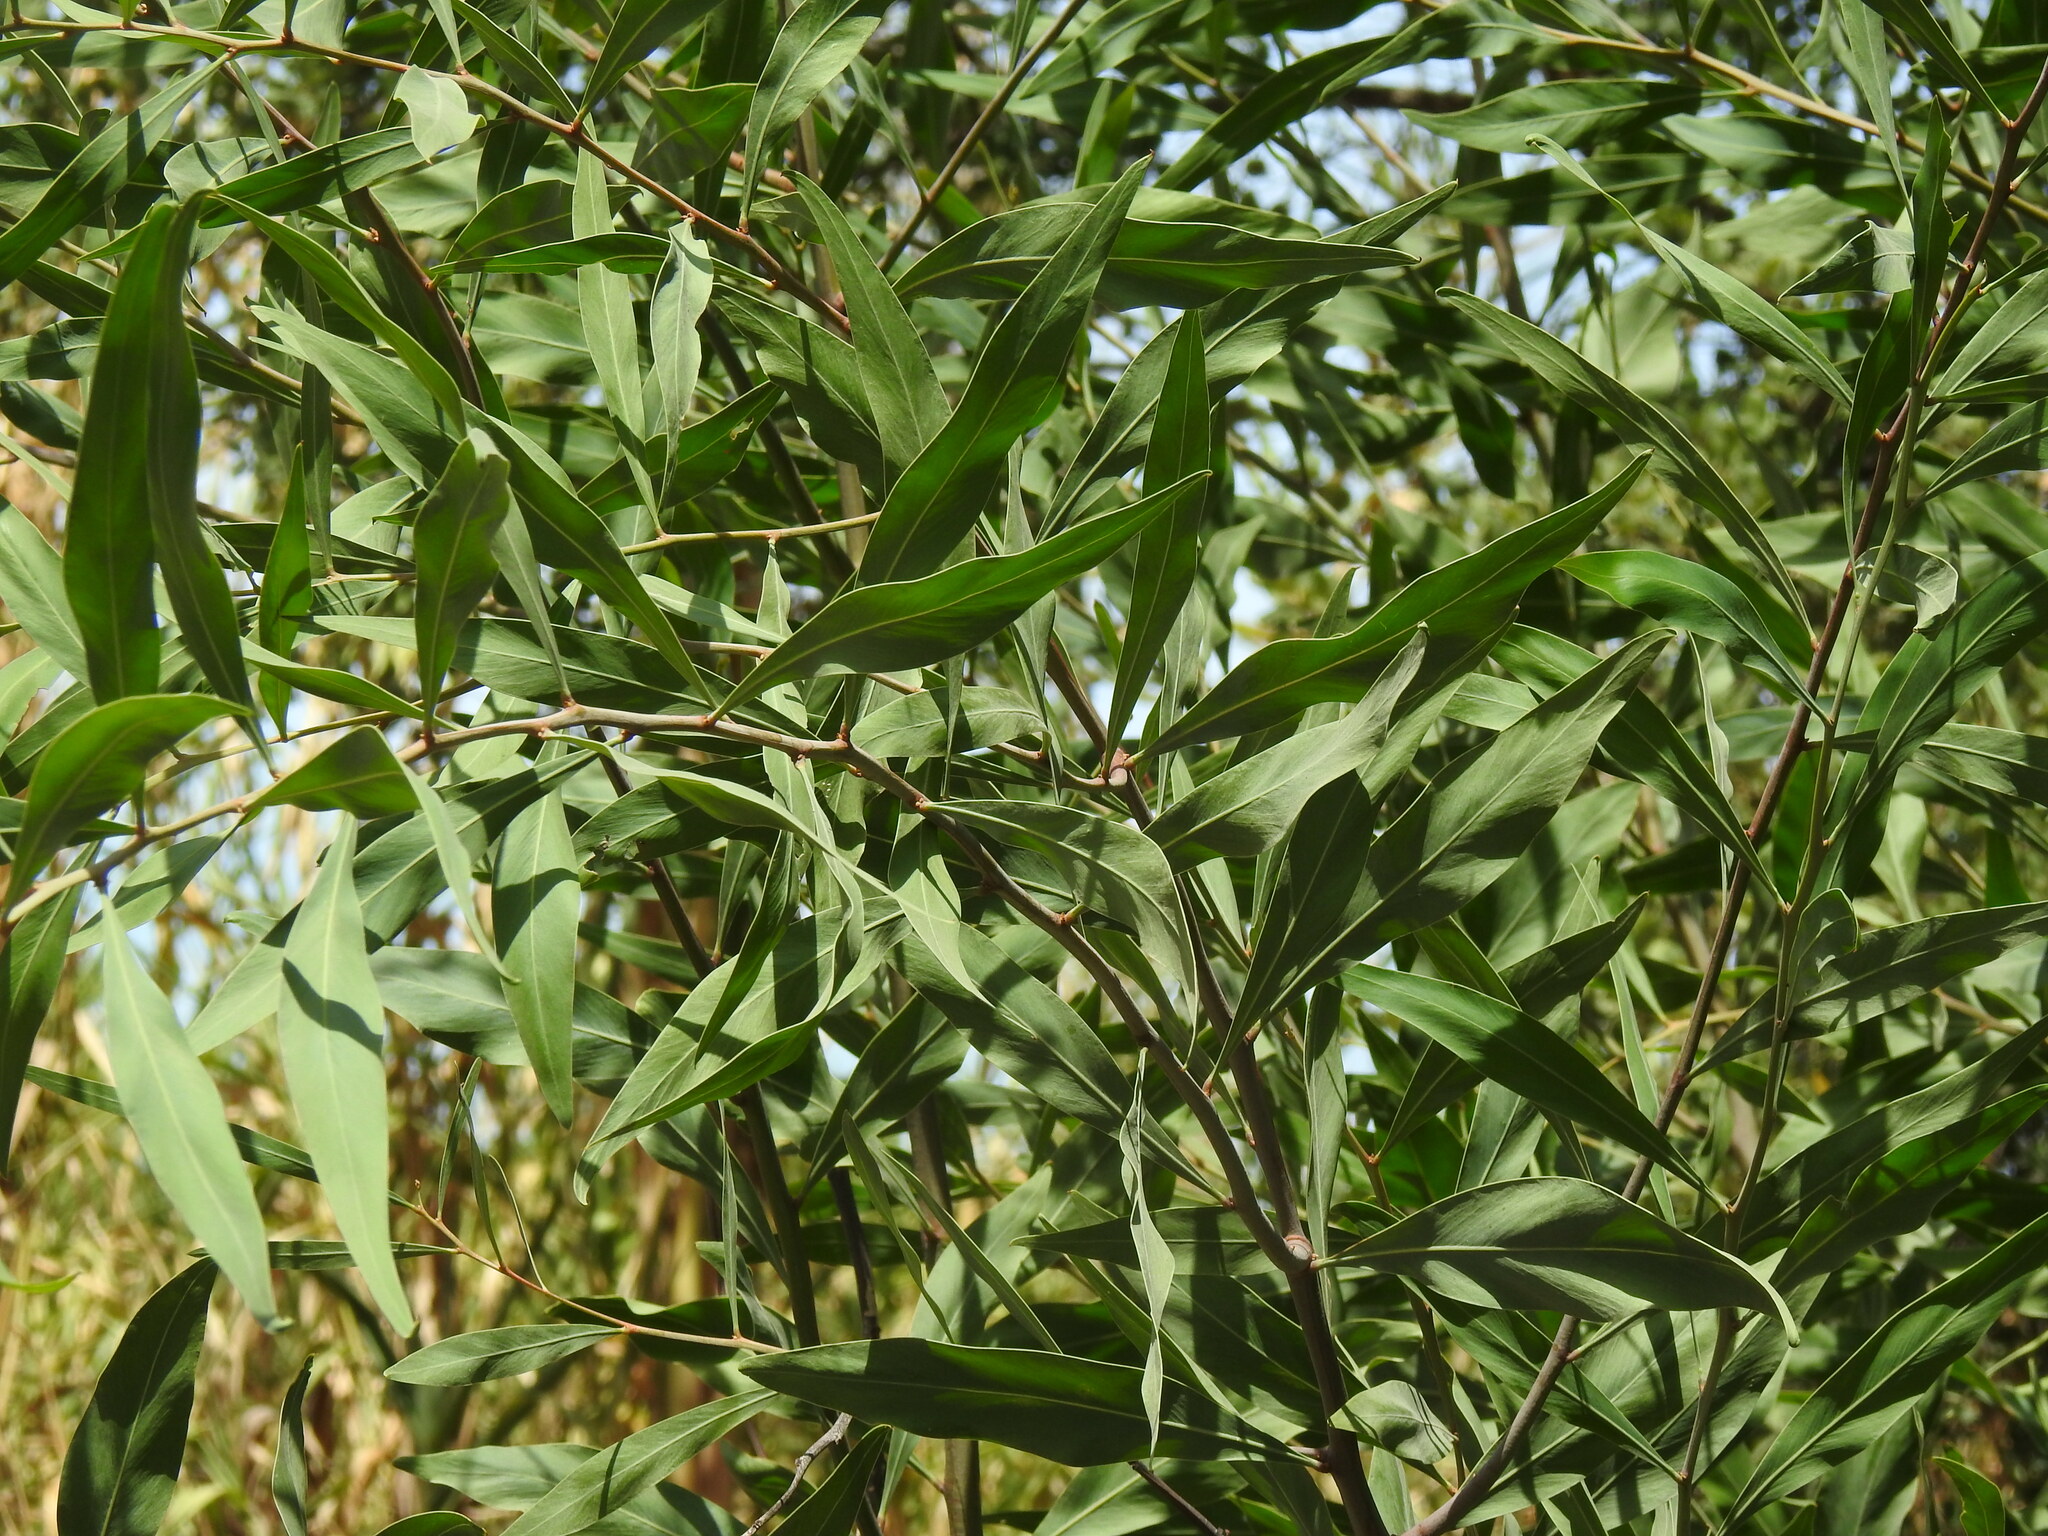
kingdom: Plantae
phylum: Tracheophyta
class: Magnoliopsida
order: Fabales
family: Fabaceae
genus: Acacia
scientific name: Acacia saligna
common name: Orange wattle
